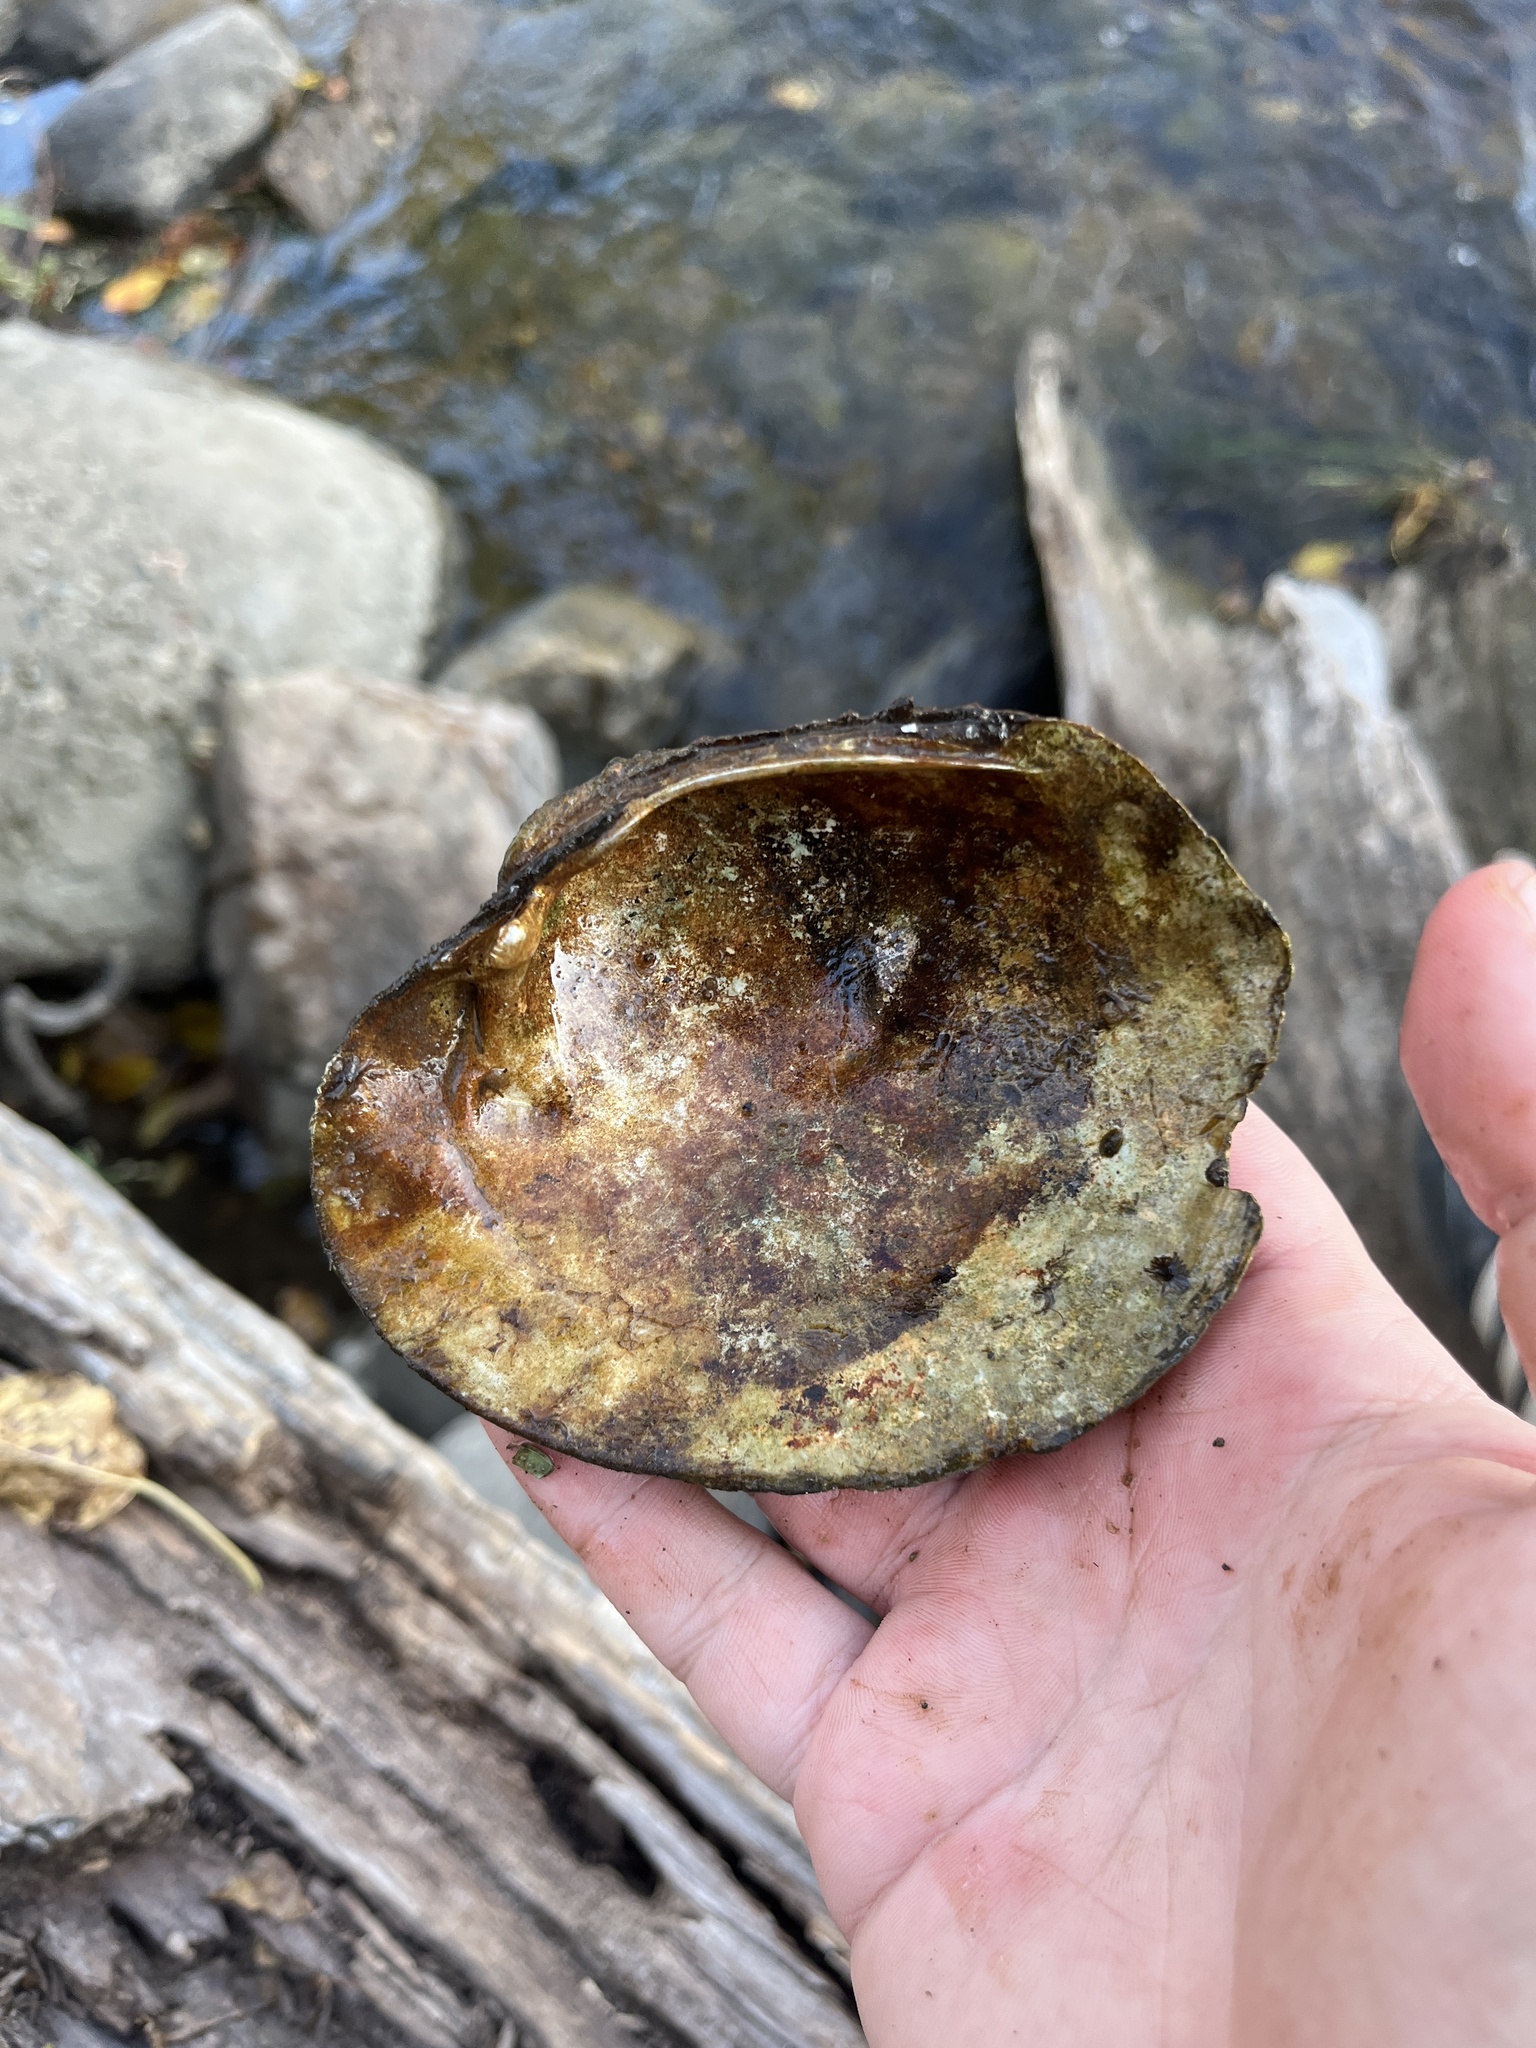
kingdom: Animalia
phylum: Mollusca
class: Bivalvia
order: Unionida
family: Unionidae
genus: Lampsilis
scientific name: Lampsilis cardium
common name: Plain pocketbook
